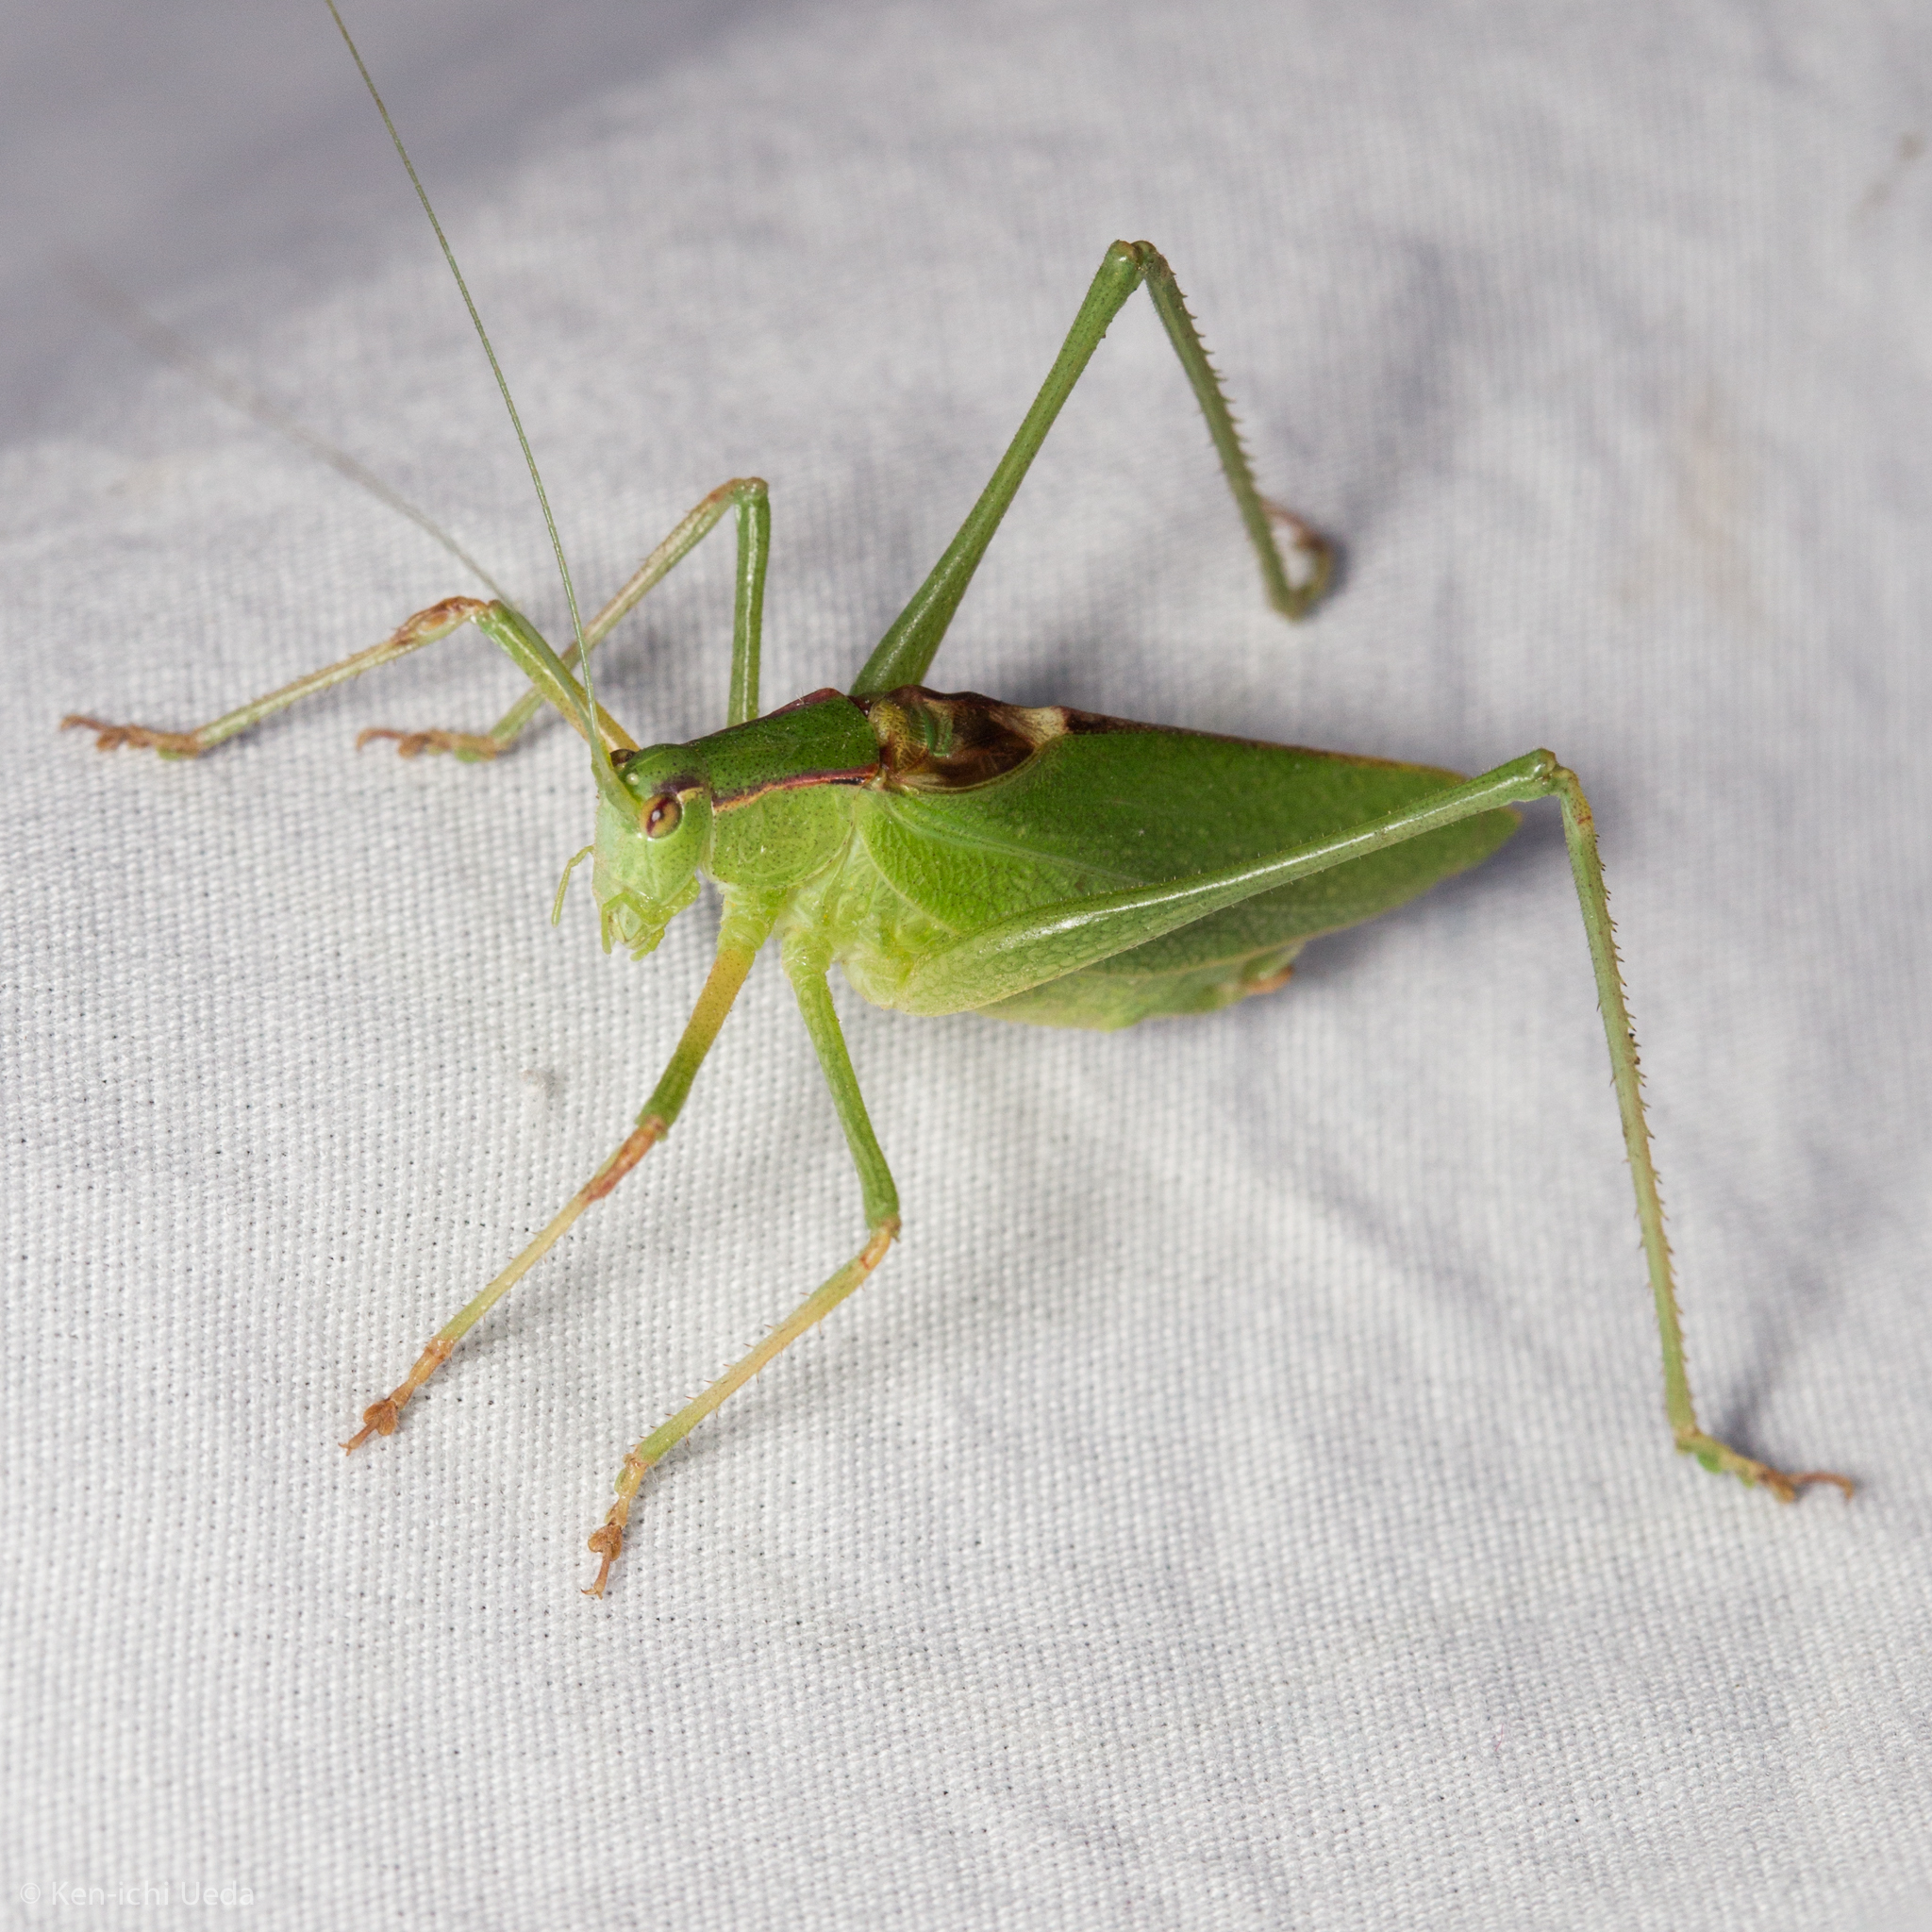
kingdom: Animalia
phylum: Arthropoda
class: Insecta
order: Orthoptera
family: Tettigoniidae
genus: Platylyra
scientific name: Platylyra californica
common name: Chaparral false katydid
